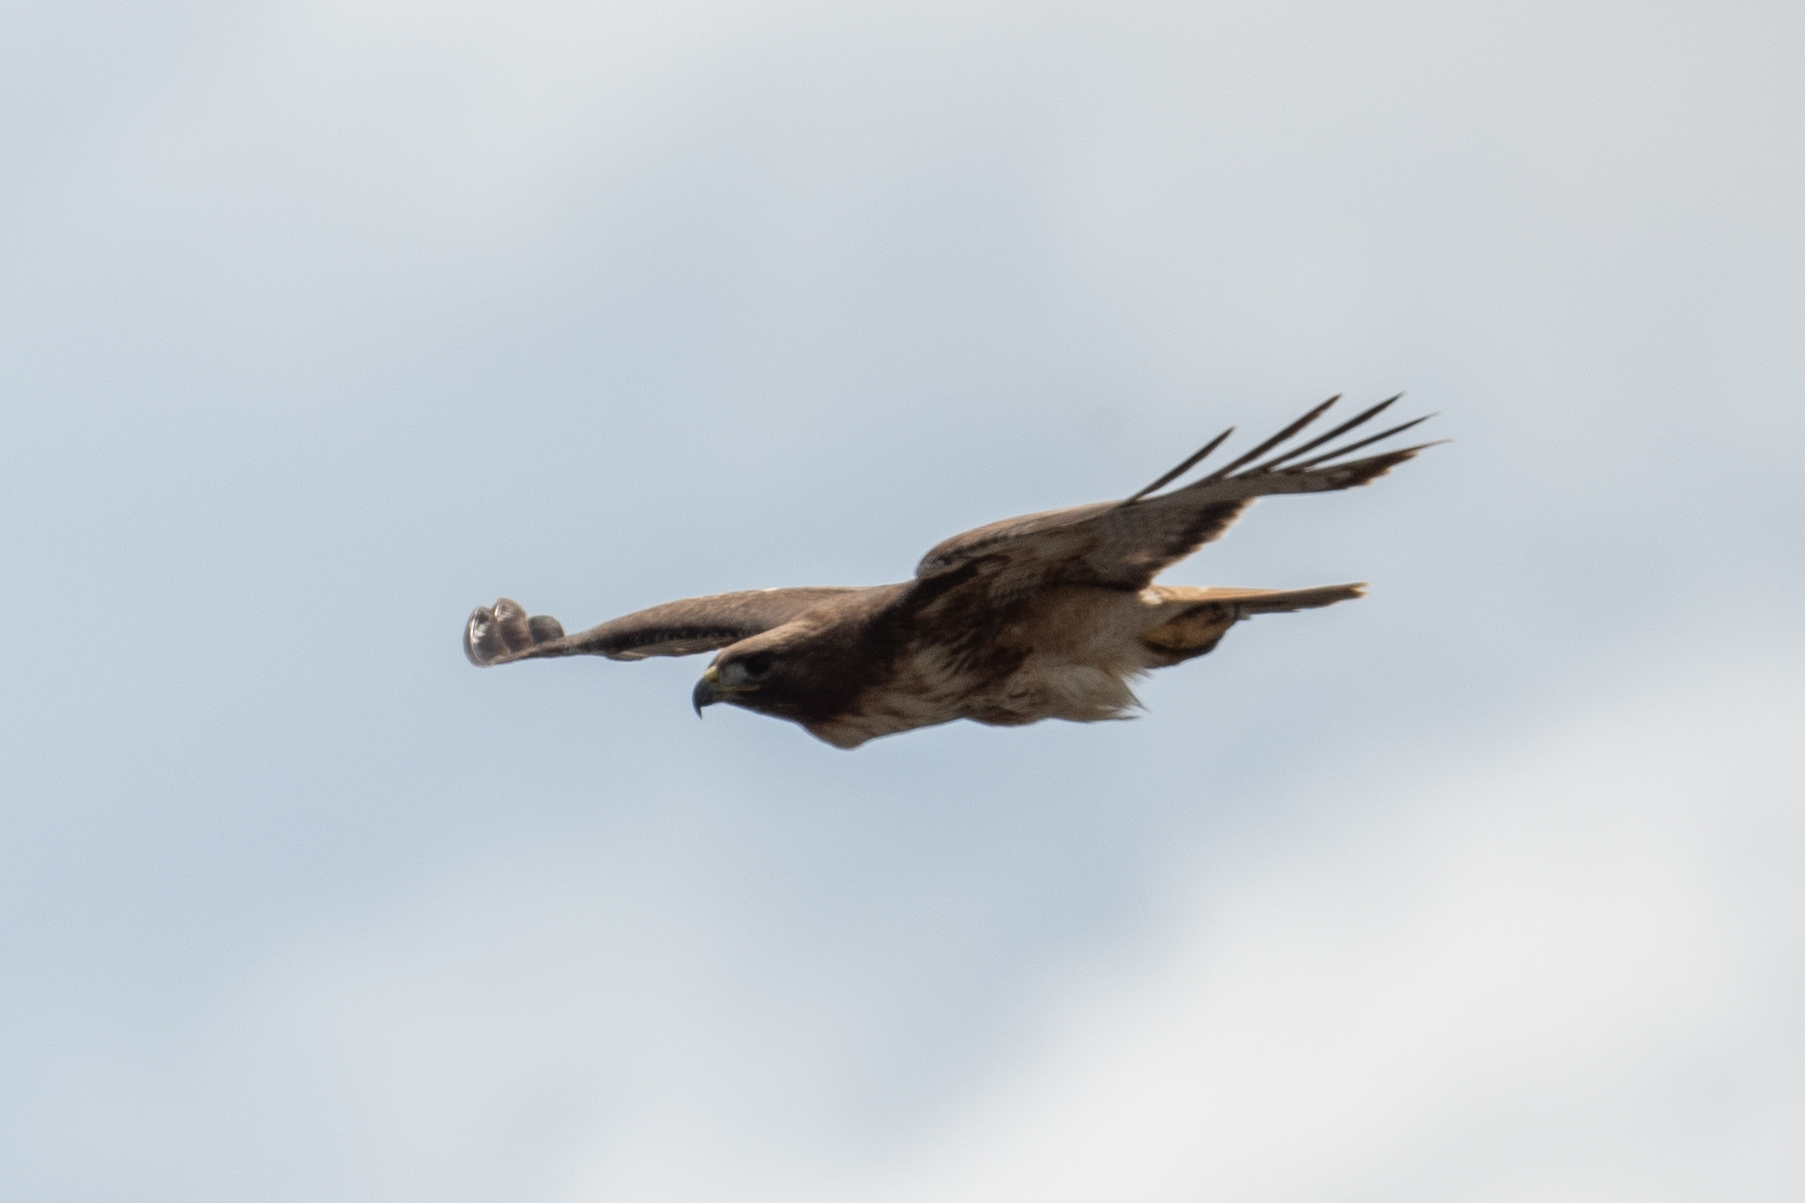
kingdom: Animalia
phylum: Chordata
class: Aves
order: Accipitriformes
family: Accipitridae
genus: Buteo
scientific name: Buteo jamaicensis
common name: Red-tailed hawk
